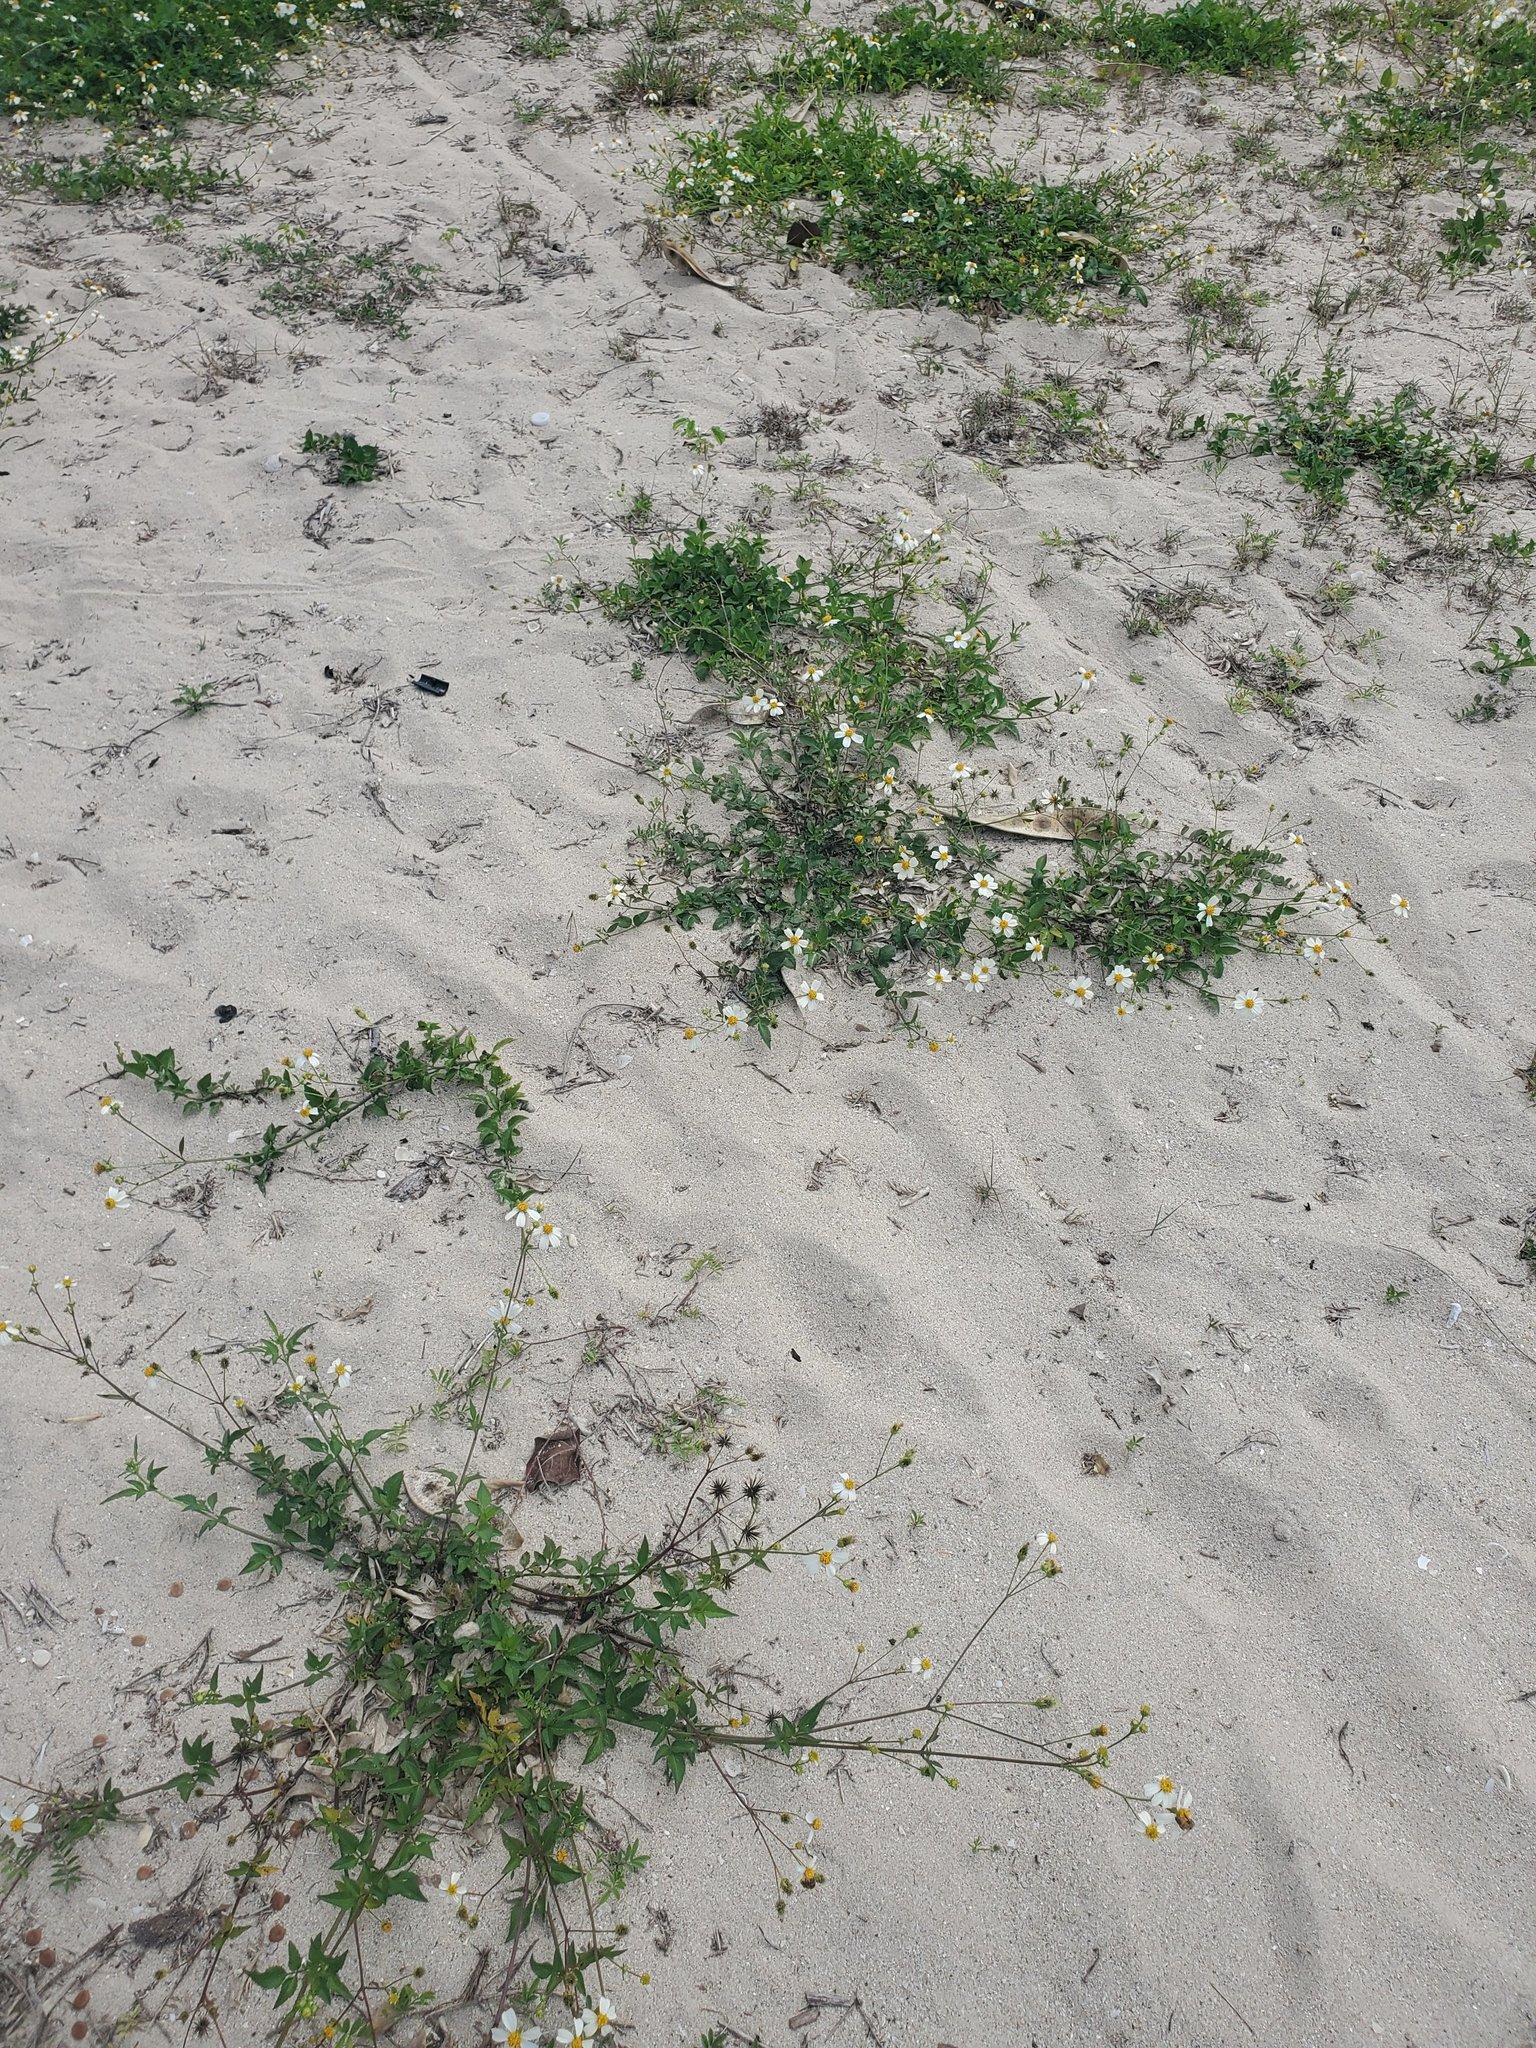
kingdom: Plantae
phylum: Tracheophyta
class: Magnoliopsida
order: Asterales
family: Asteraceae
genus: Bidens
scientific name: Bidens alba
